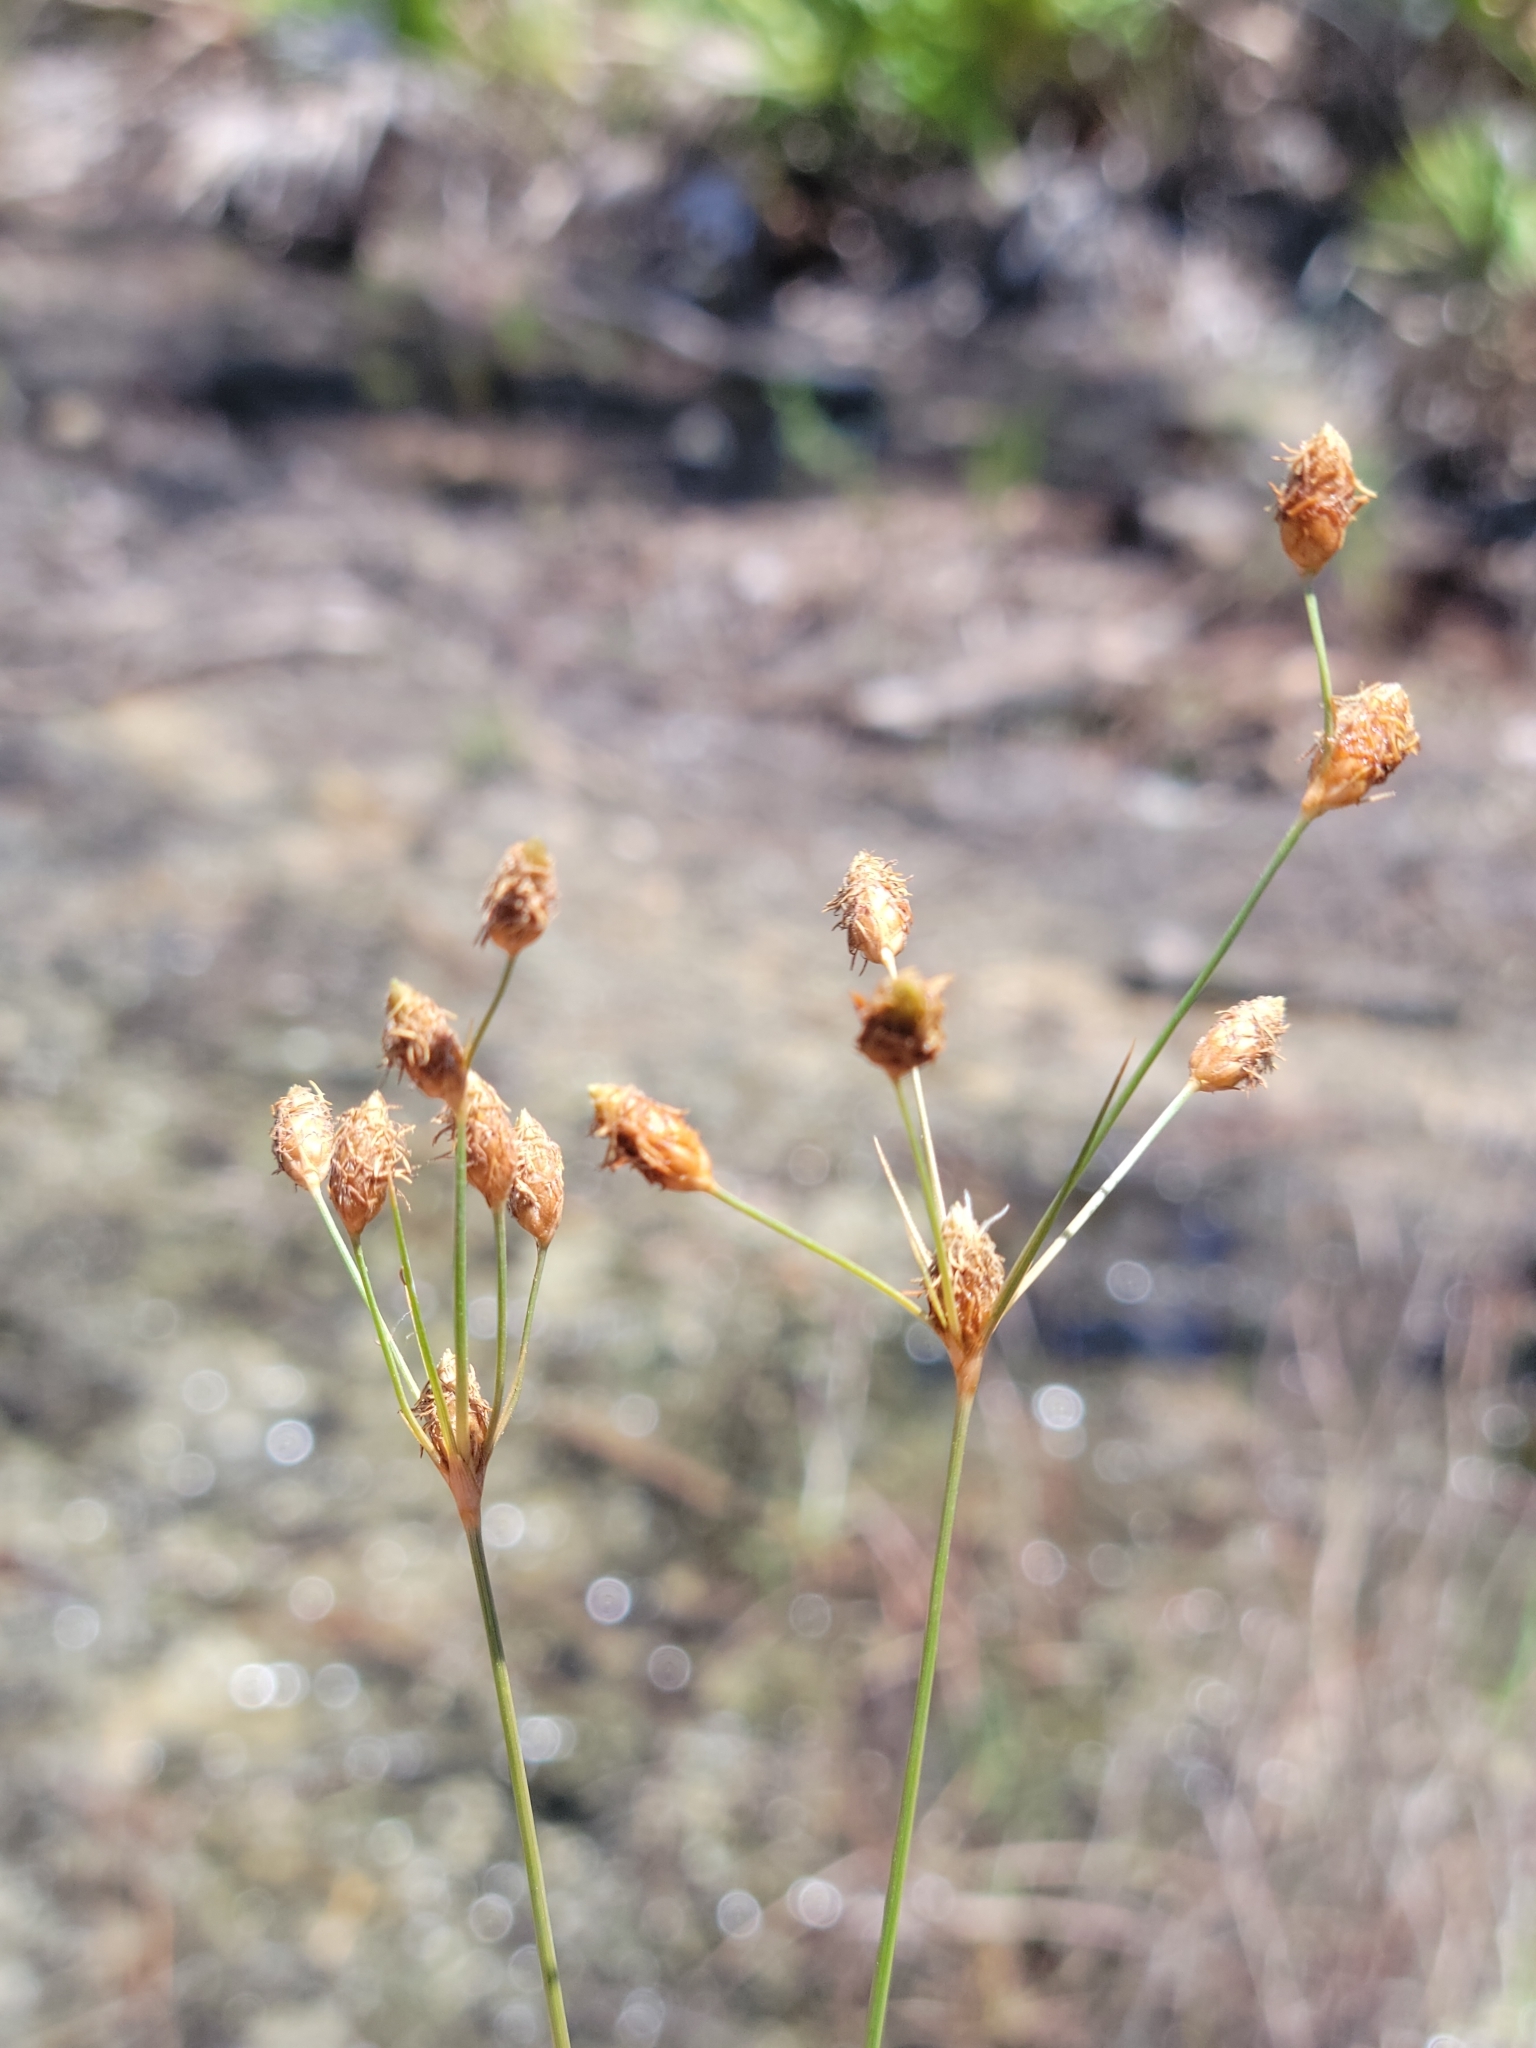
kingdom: Plantae
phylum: Tracheophyta
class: Liliopsida
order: Poales
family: Cyperaceae
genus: Fimbristylis
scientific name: Fimbristylis caroliniana
